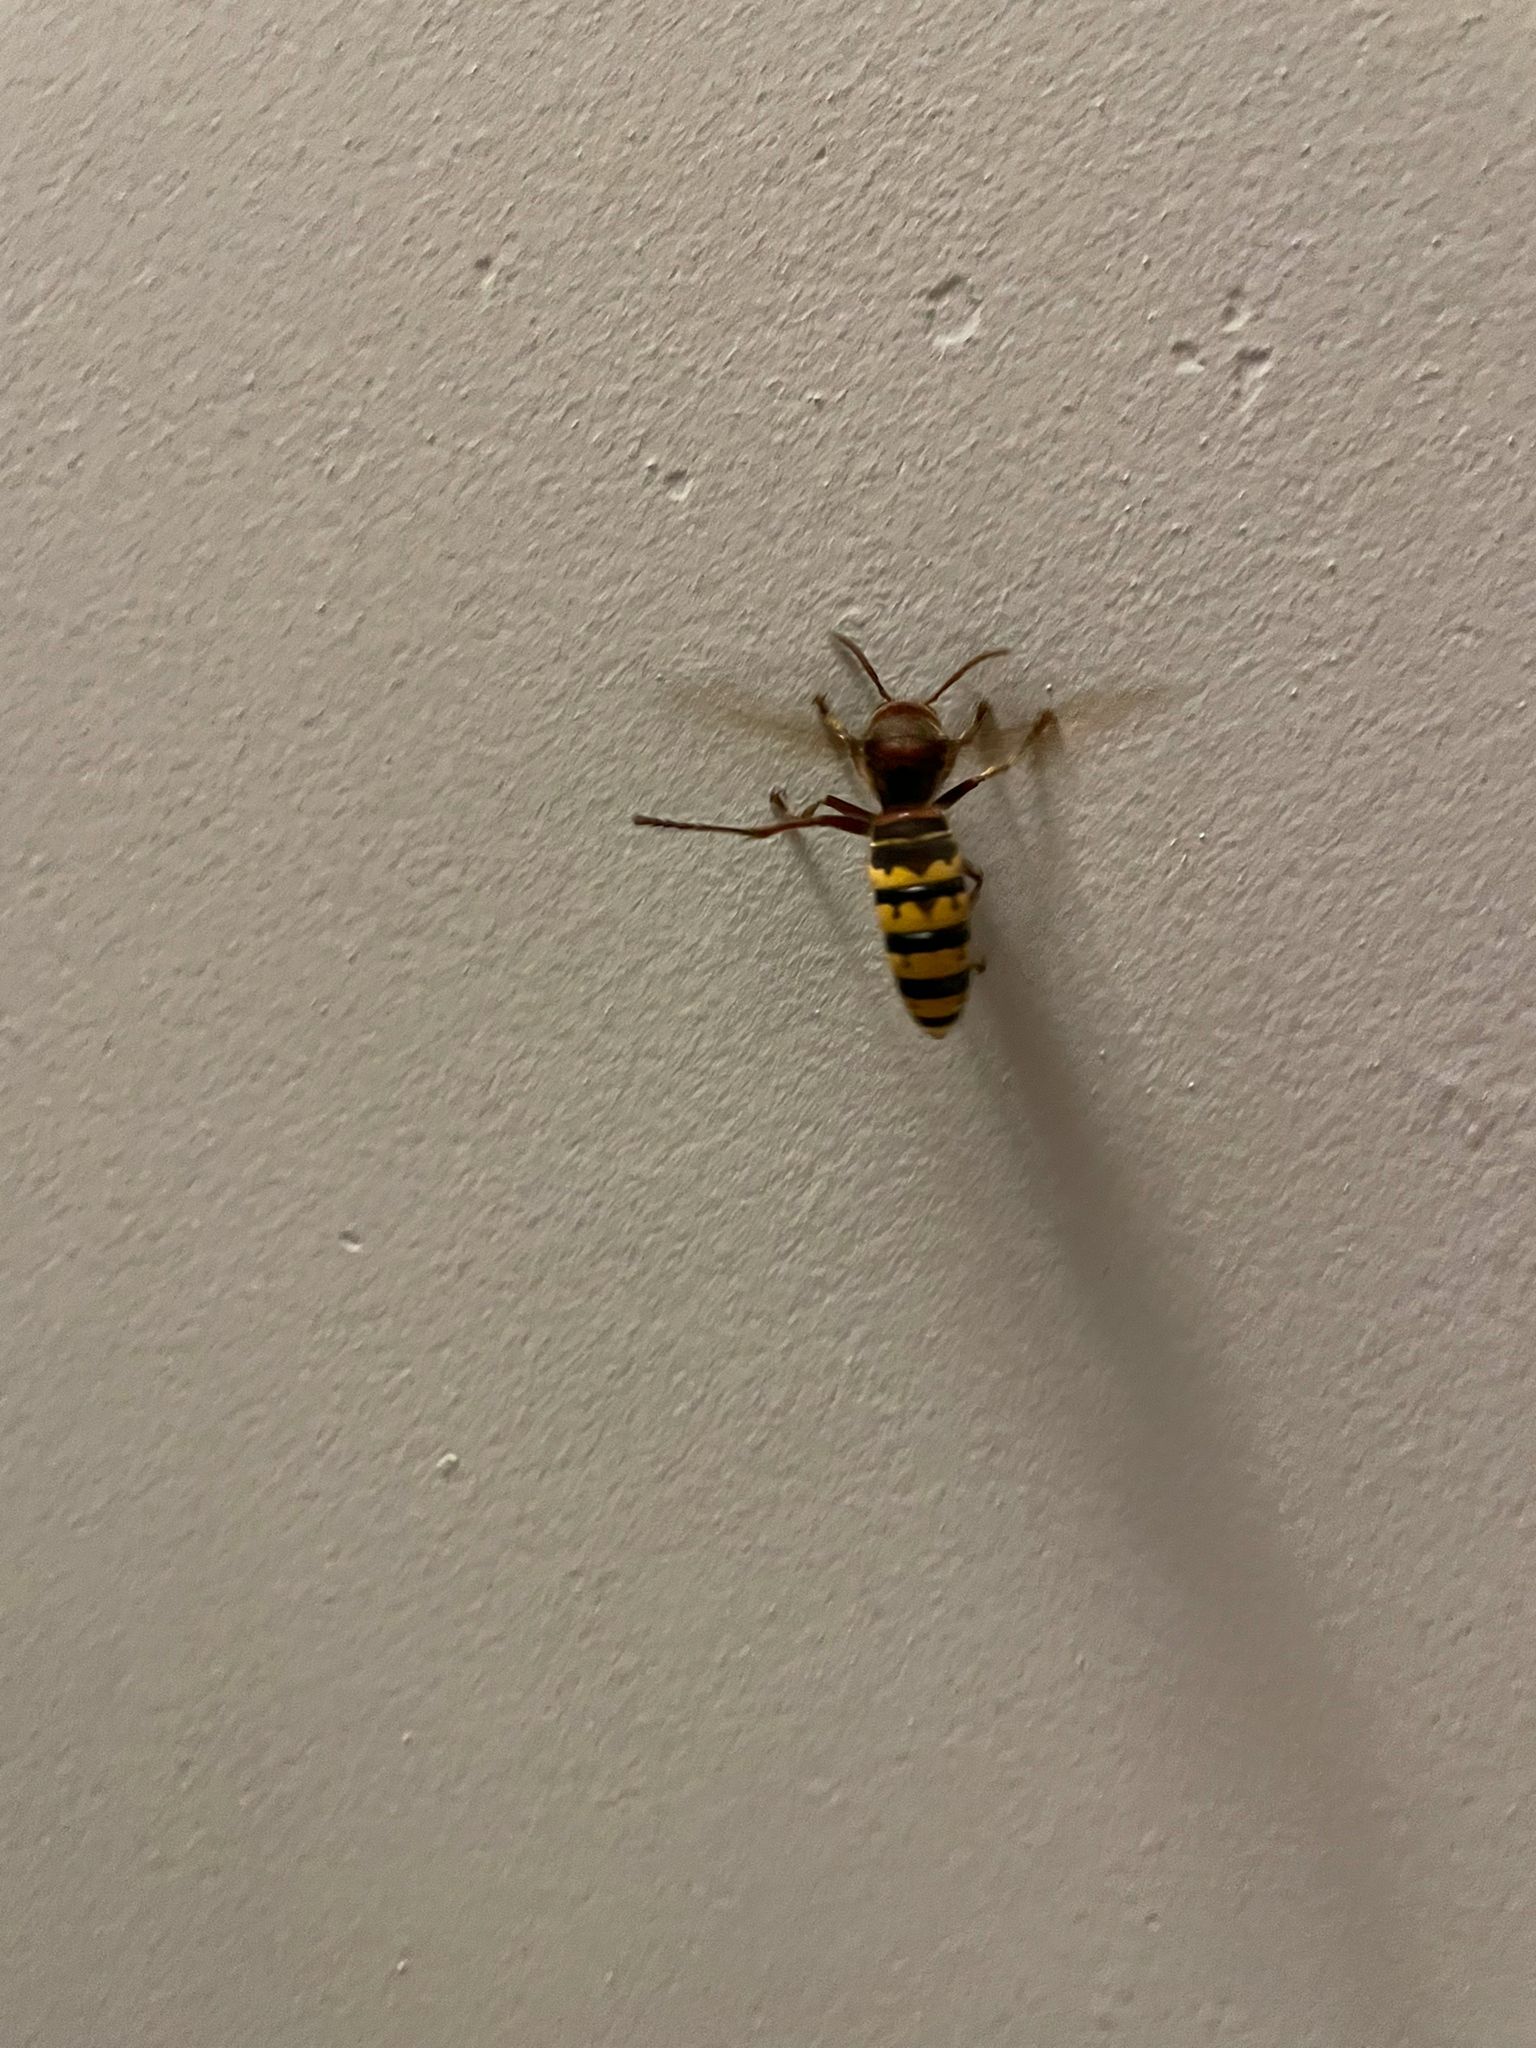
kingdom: Animalia
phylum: Arthropoda
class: Insecta
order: Hymenoptera
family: Vespidae
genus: Vespa
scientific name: Vespa crabro
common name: Hornet
